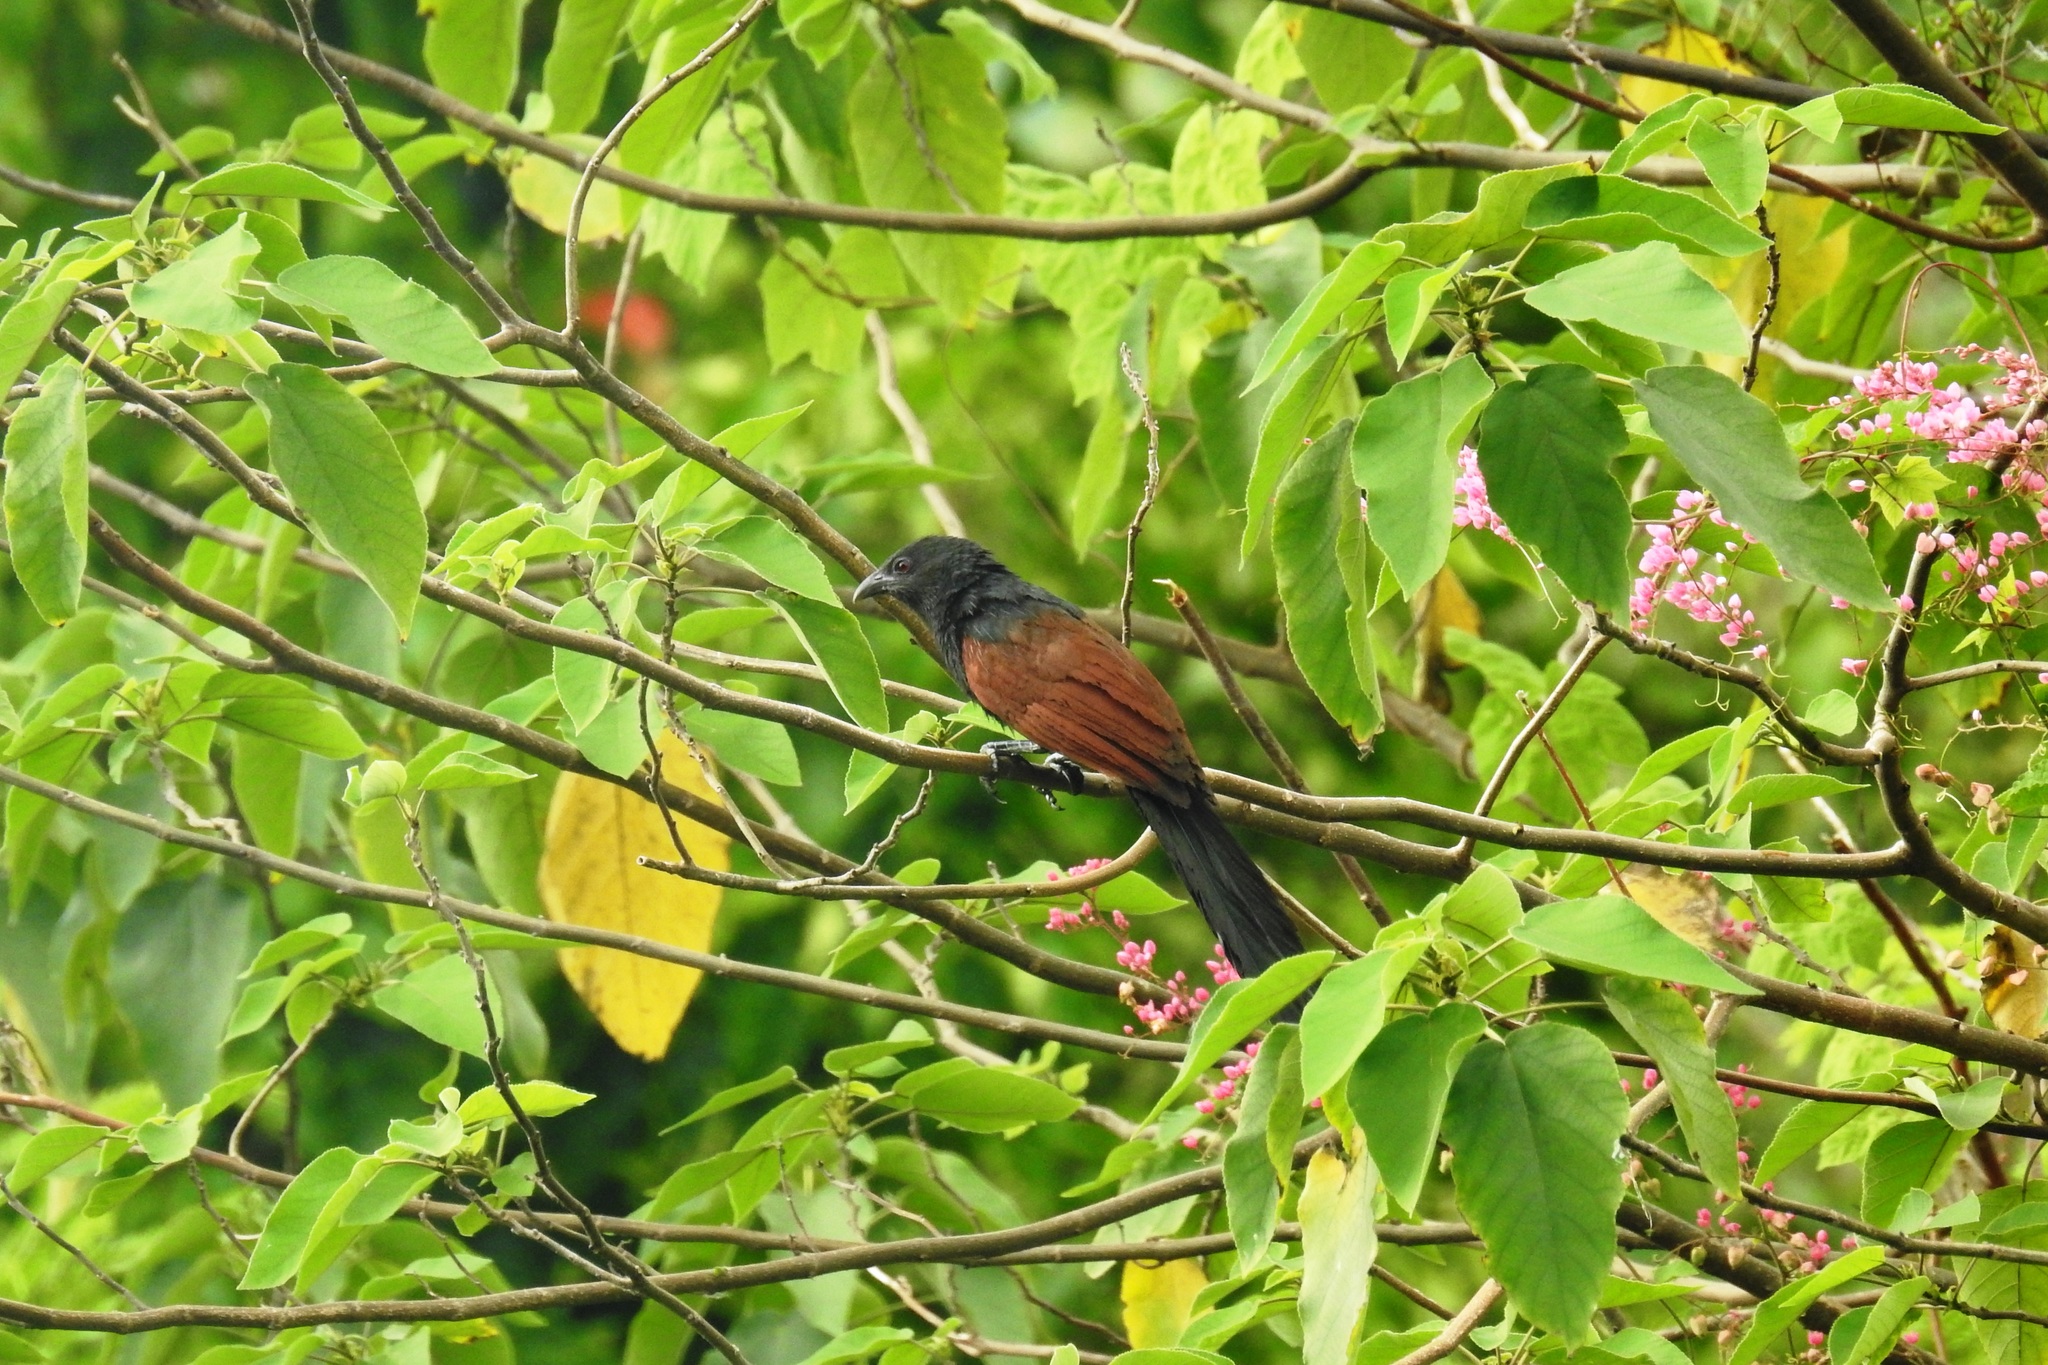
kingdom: Animalia
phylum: Chordata
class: Aves
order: Cuculiformes
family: Cuculidae
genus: Centropus
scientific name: Centropus viridis
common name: Philippine coucal
